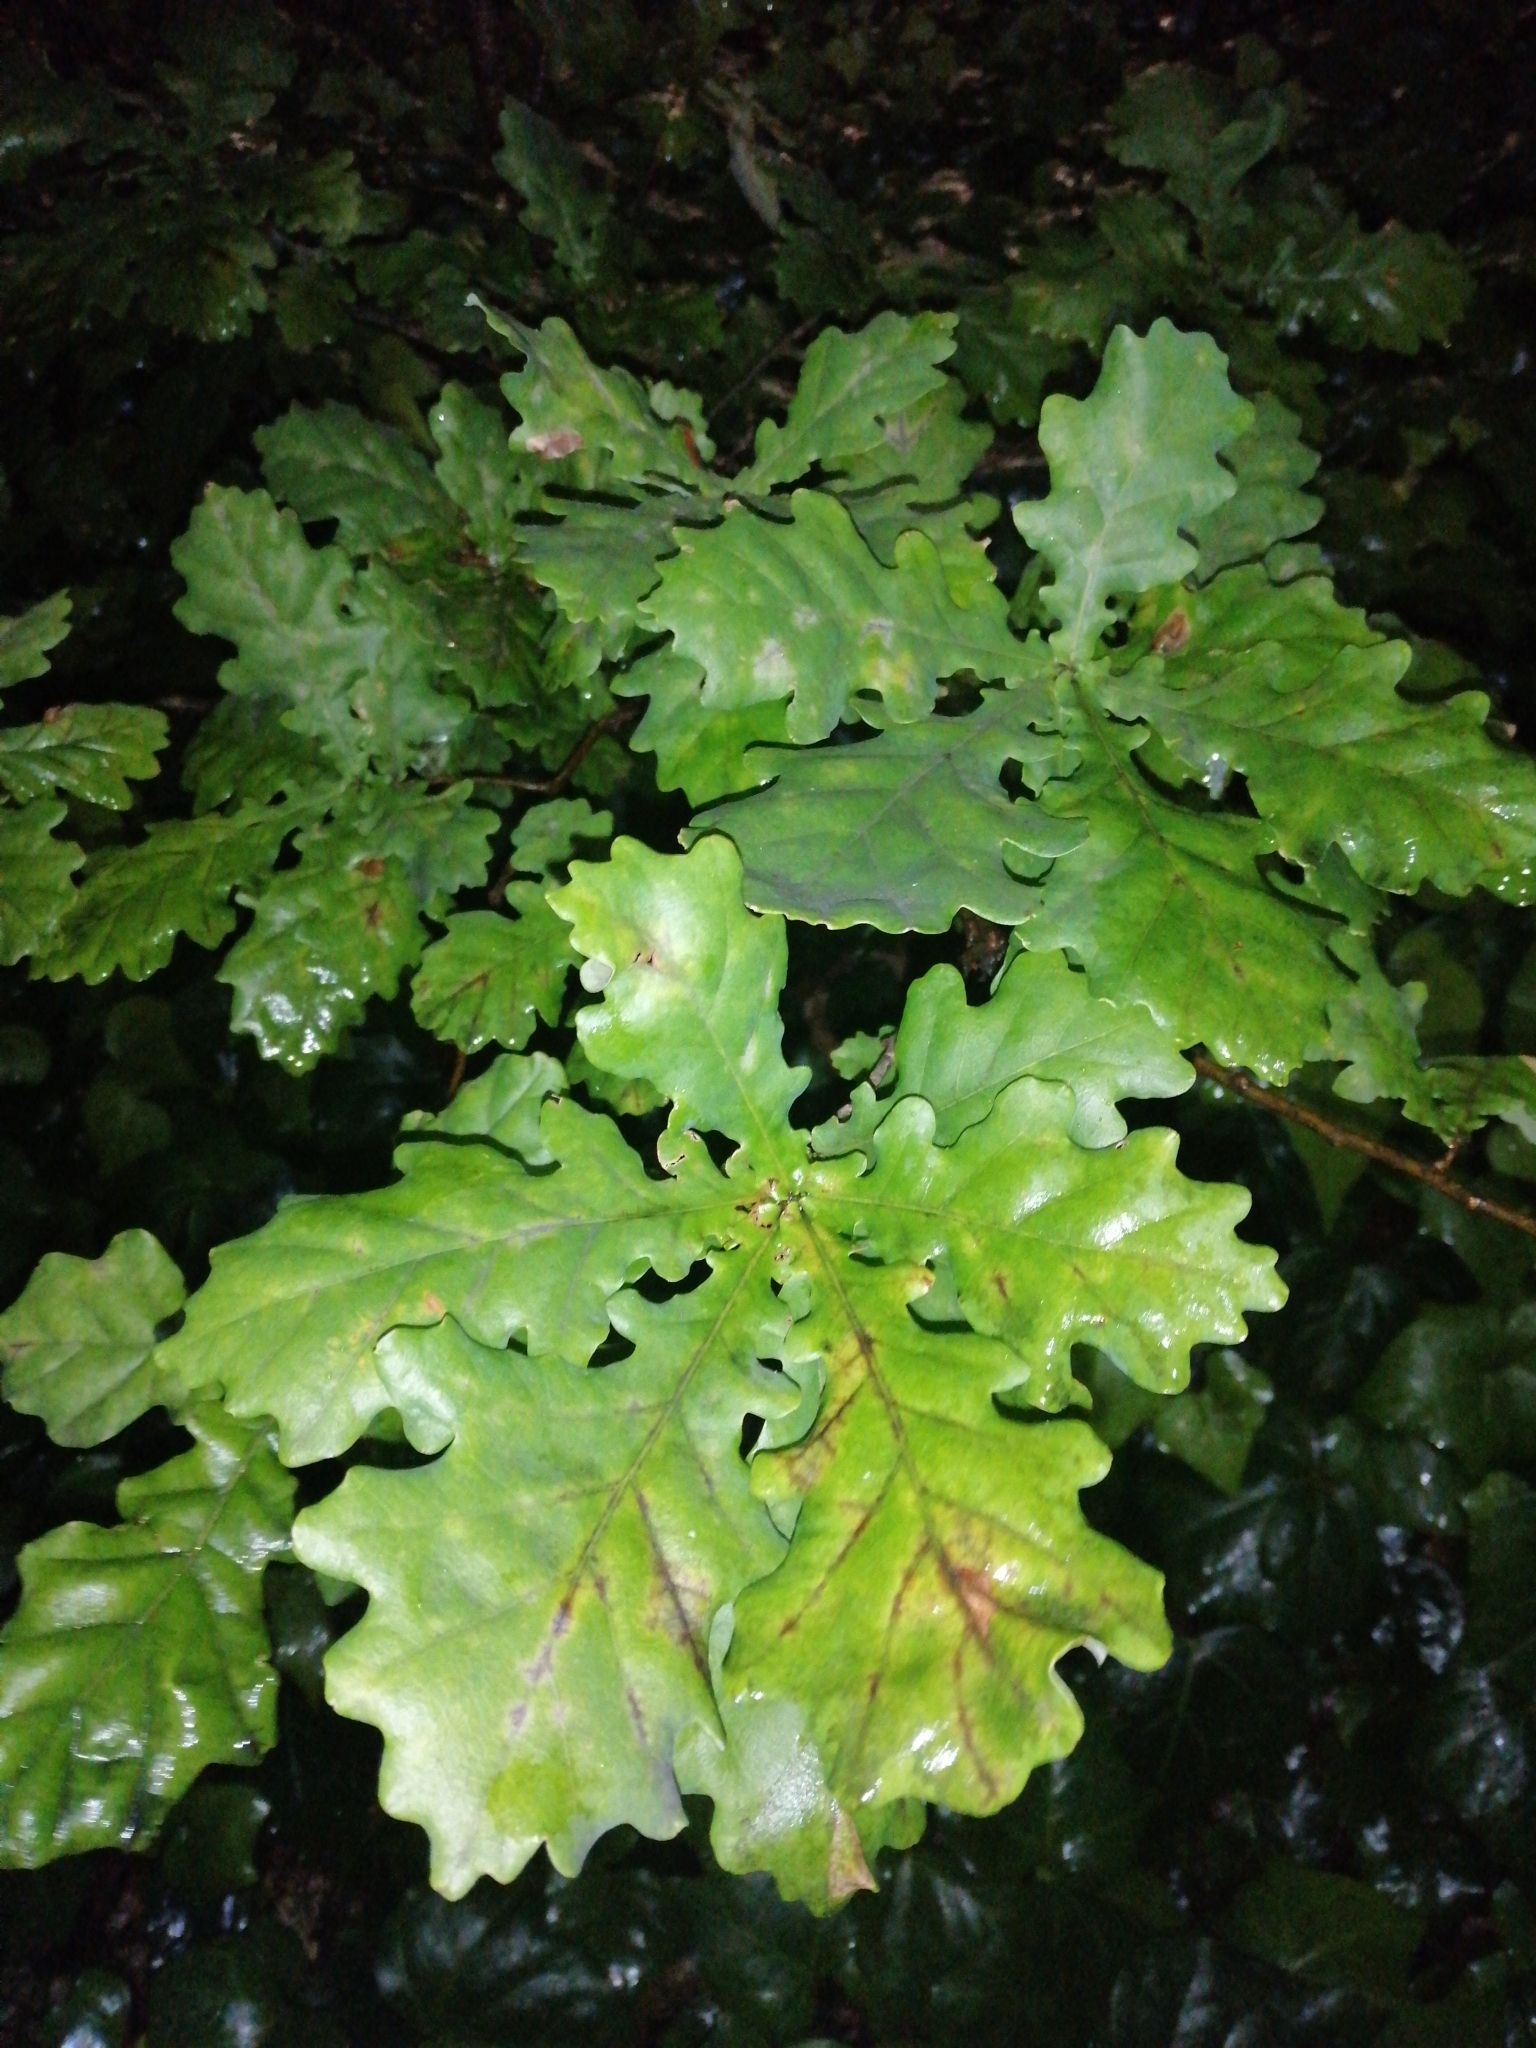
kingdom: Plantae
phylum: Tracheophyta
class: Magnoliopsida
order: Fagales
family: Fagaceae
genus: Quercus
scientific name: Quercus robur
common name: Pedunculate oak
